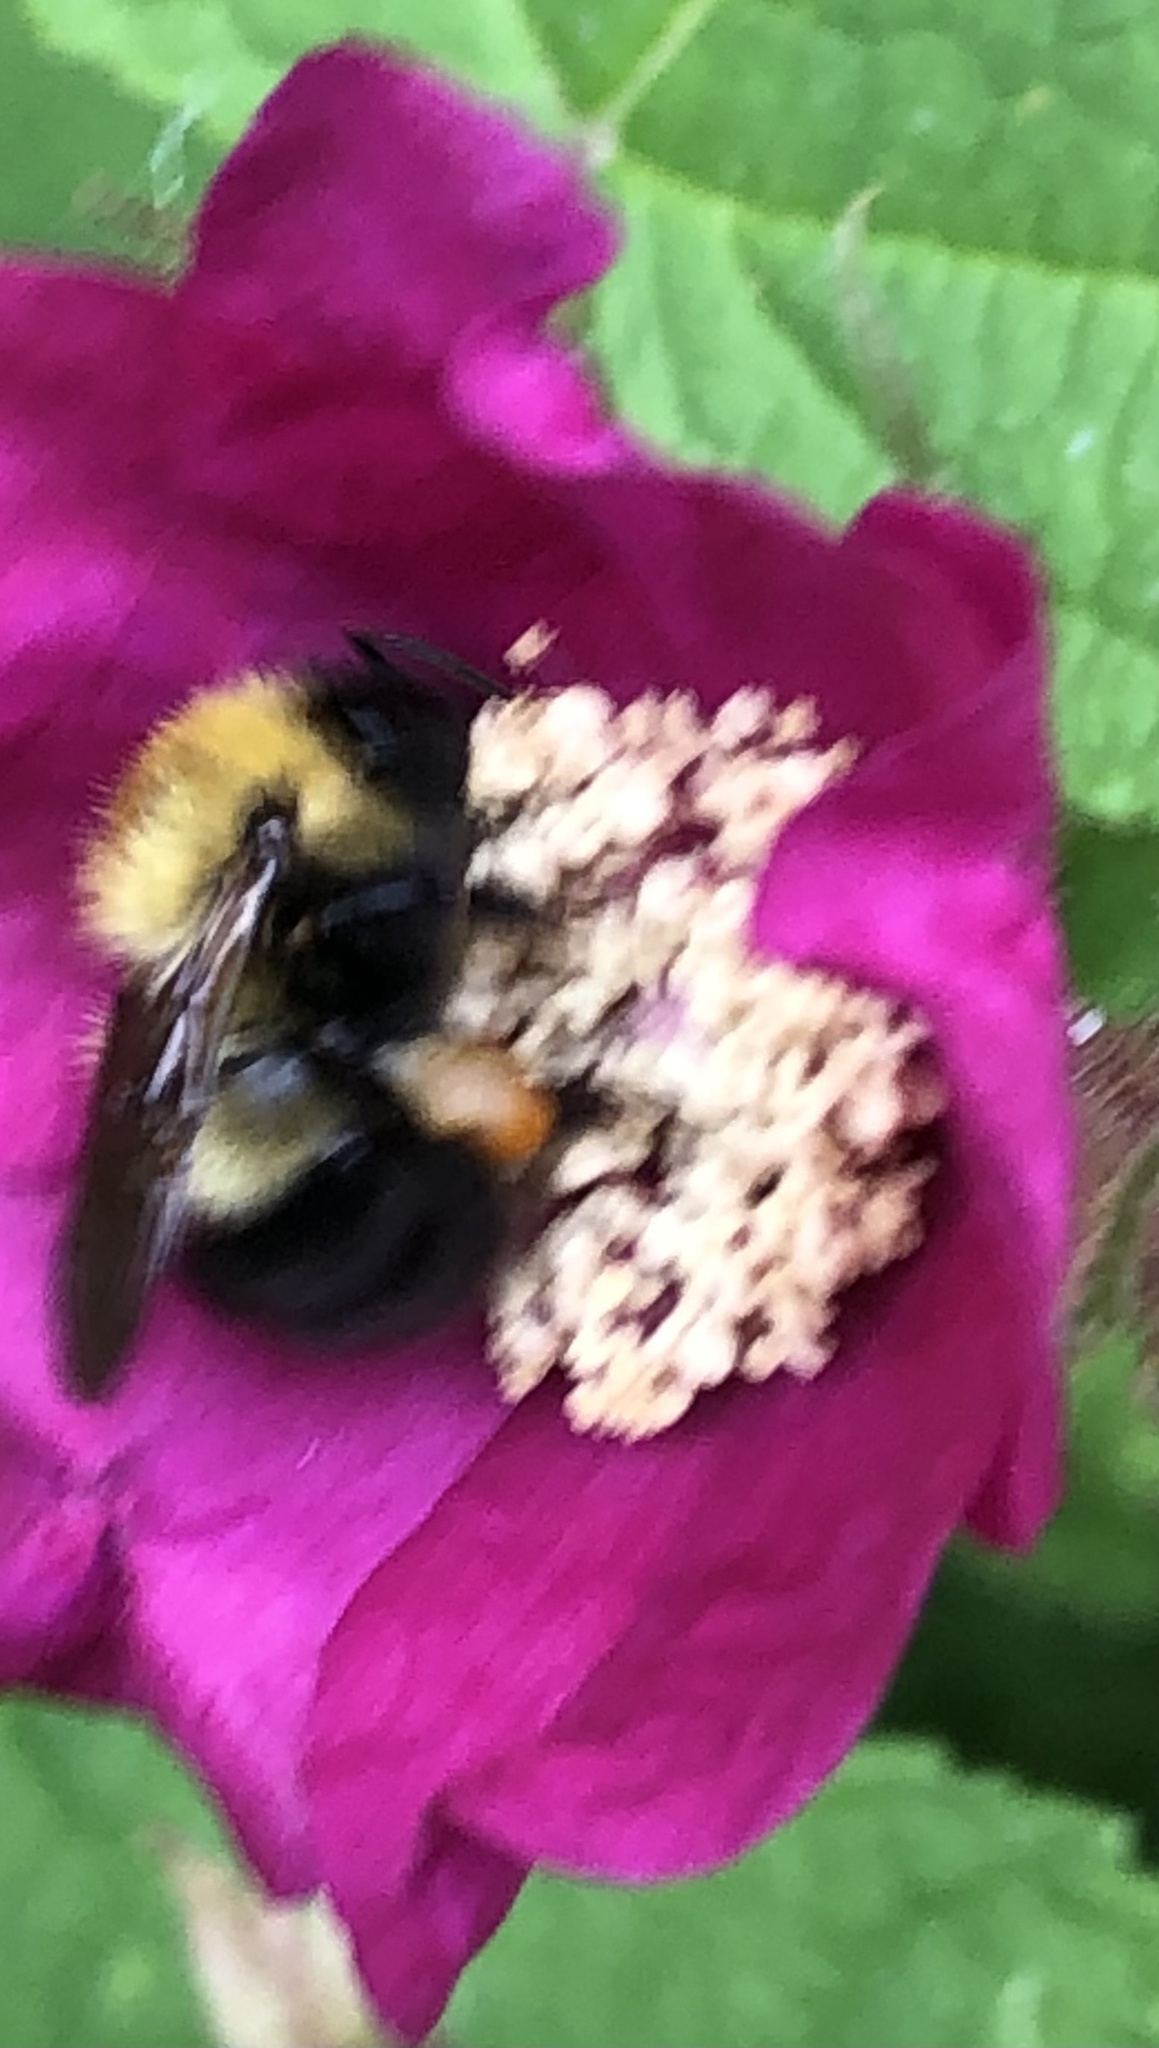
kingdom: Animalia
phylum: Arthropoda
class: Insecta
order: Hymenoptera
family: Apidae
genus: Bombus
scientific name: Bombus perplexus
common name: Confusing bumble bee
